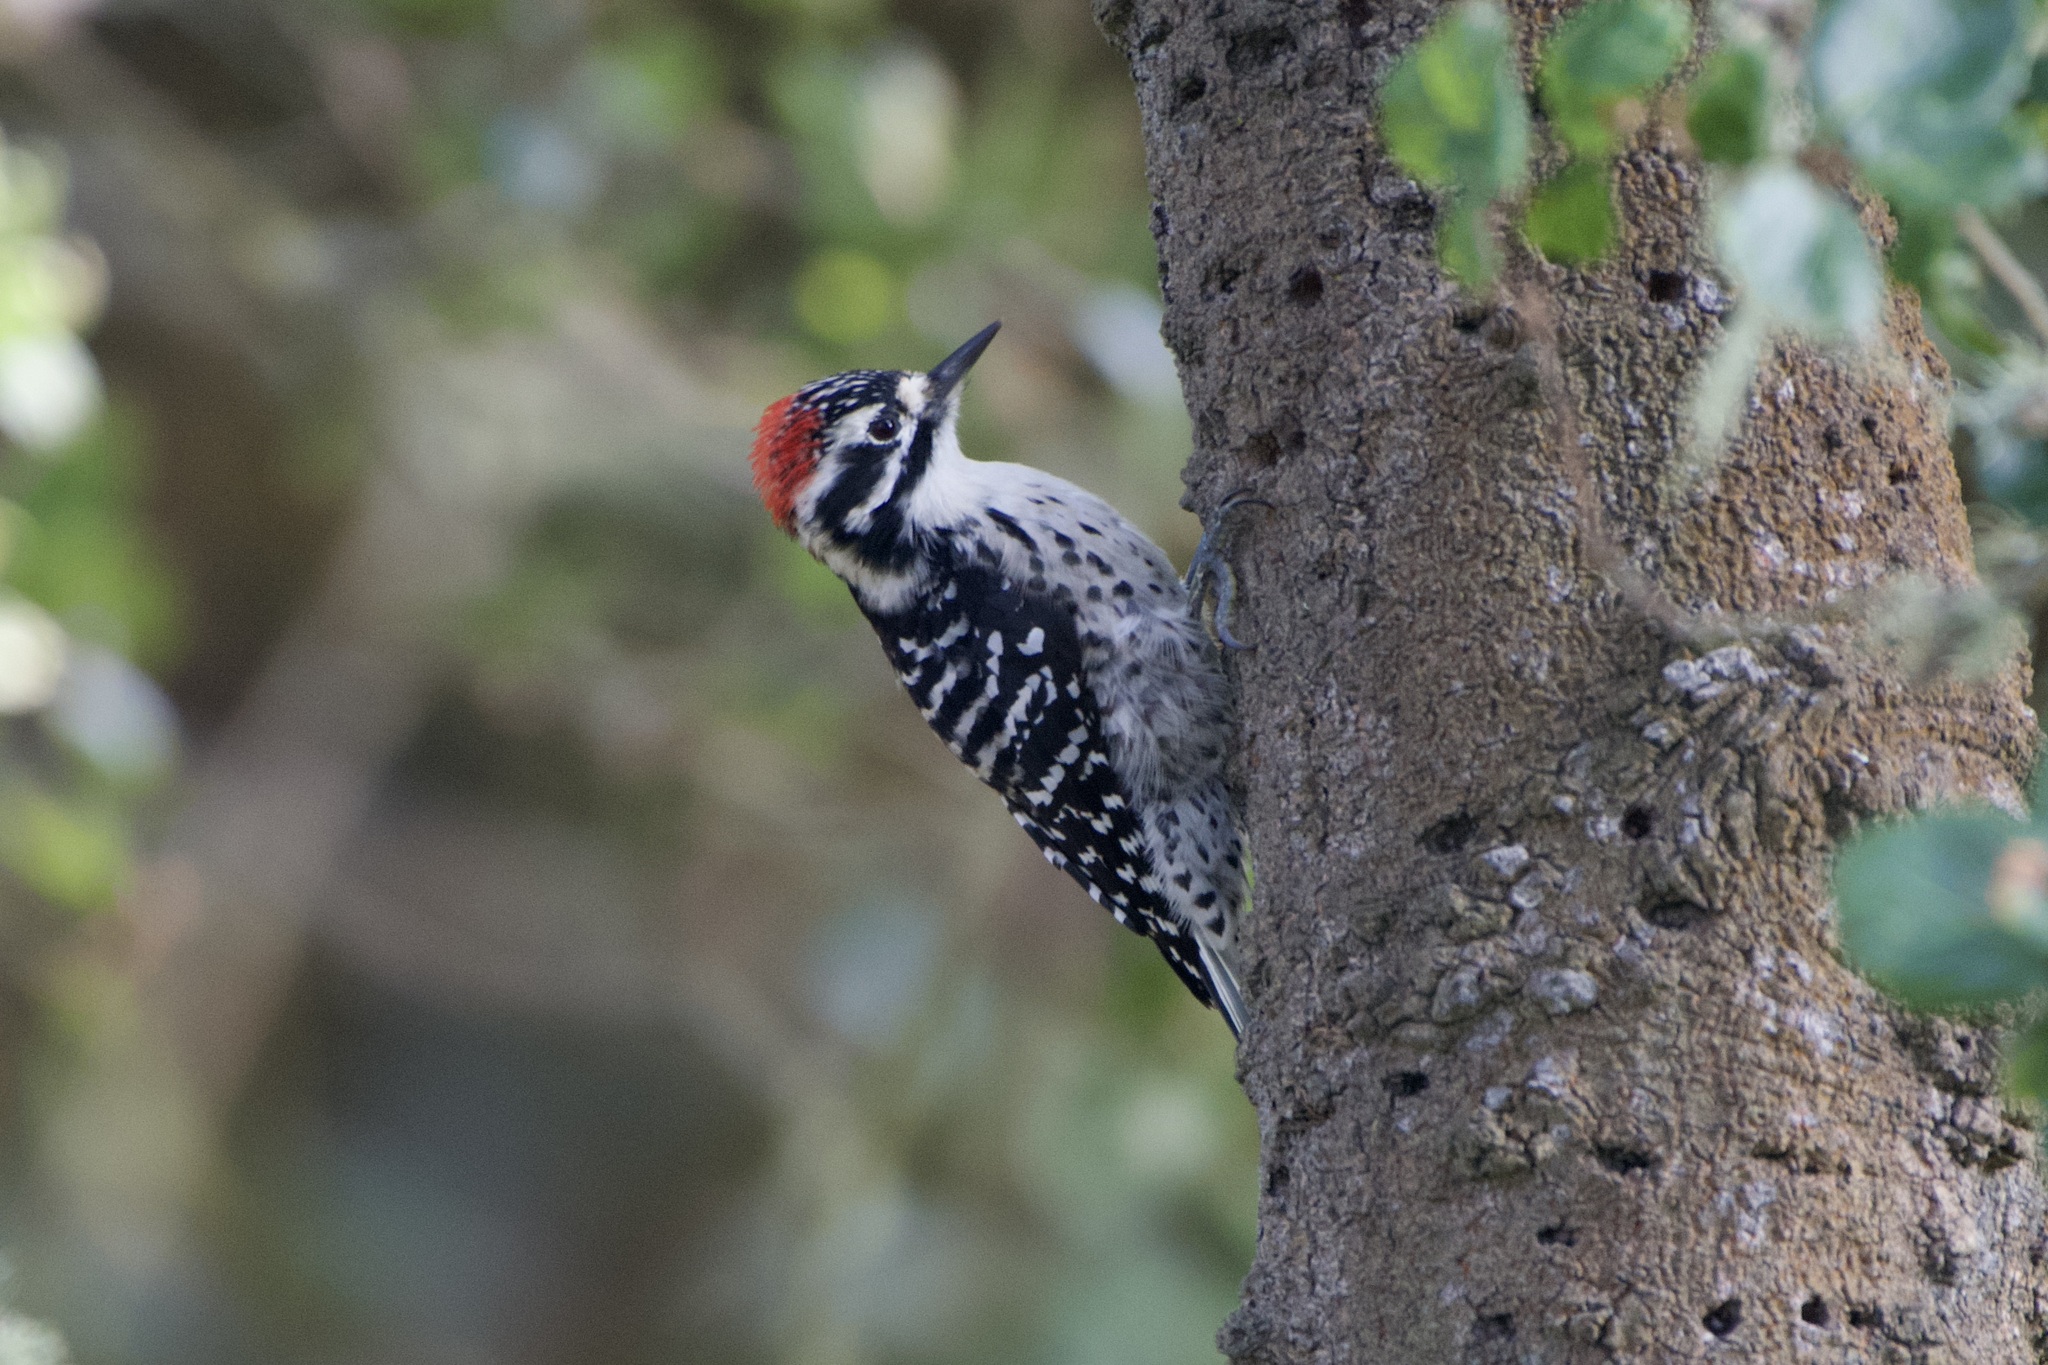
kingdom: Animalia
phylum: Chordata
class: Aves
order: Piciformes
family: Picidae
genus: Dryobates
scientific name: Dryobates nuttallii
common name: Nuttall's woodpecker
